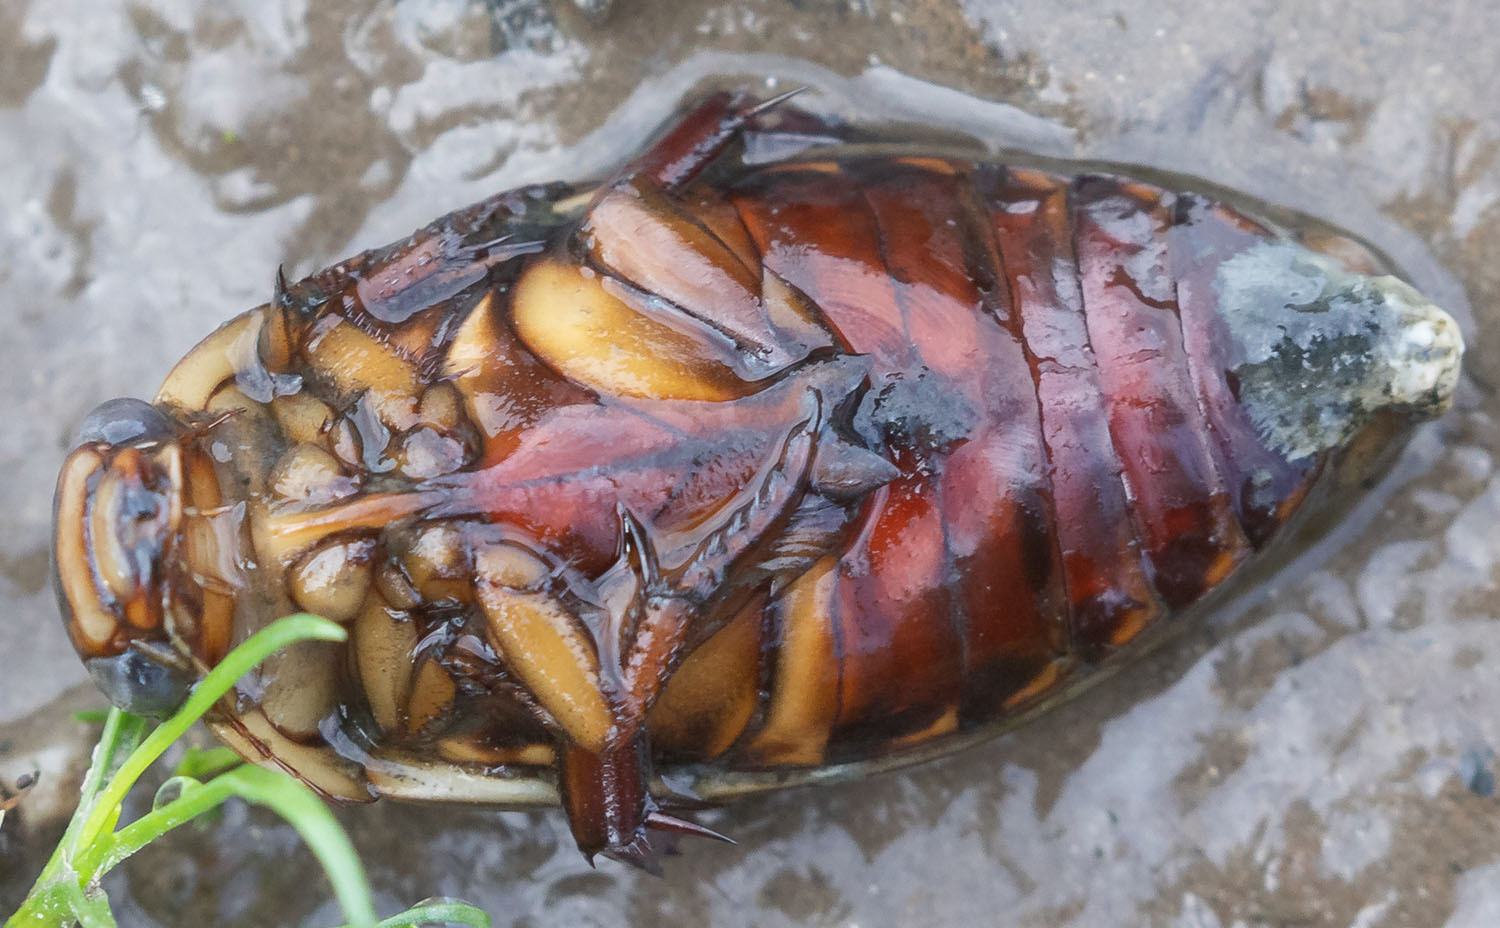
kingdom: Animalia
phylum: Arthropoda
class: Insecta
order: Coleoptera
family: Dytiscidae
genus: Dytiscus
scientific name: Dytiscus marginicollis
